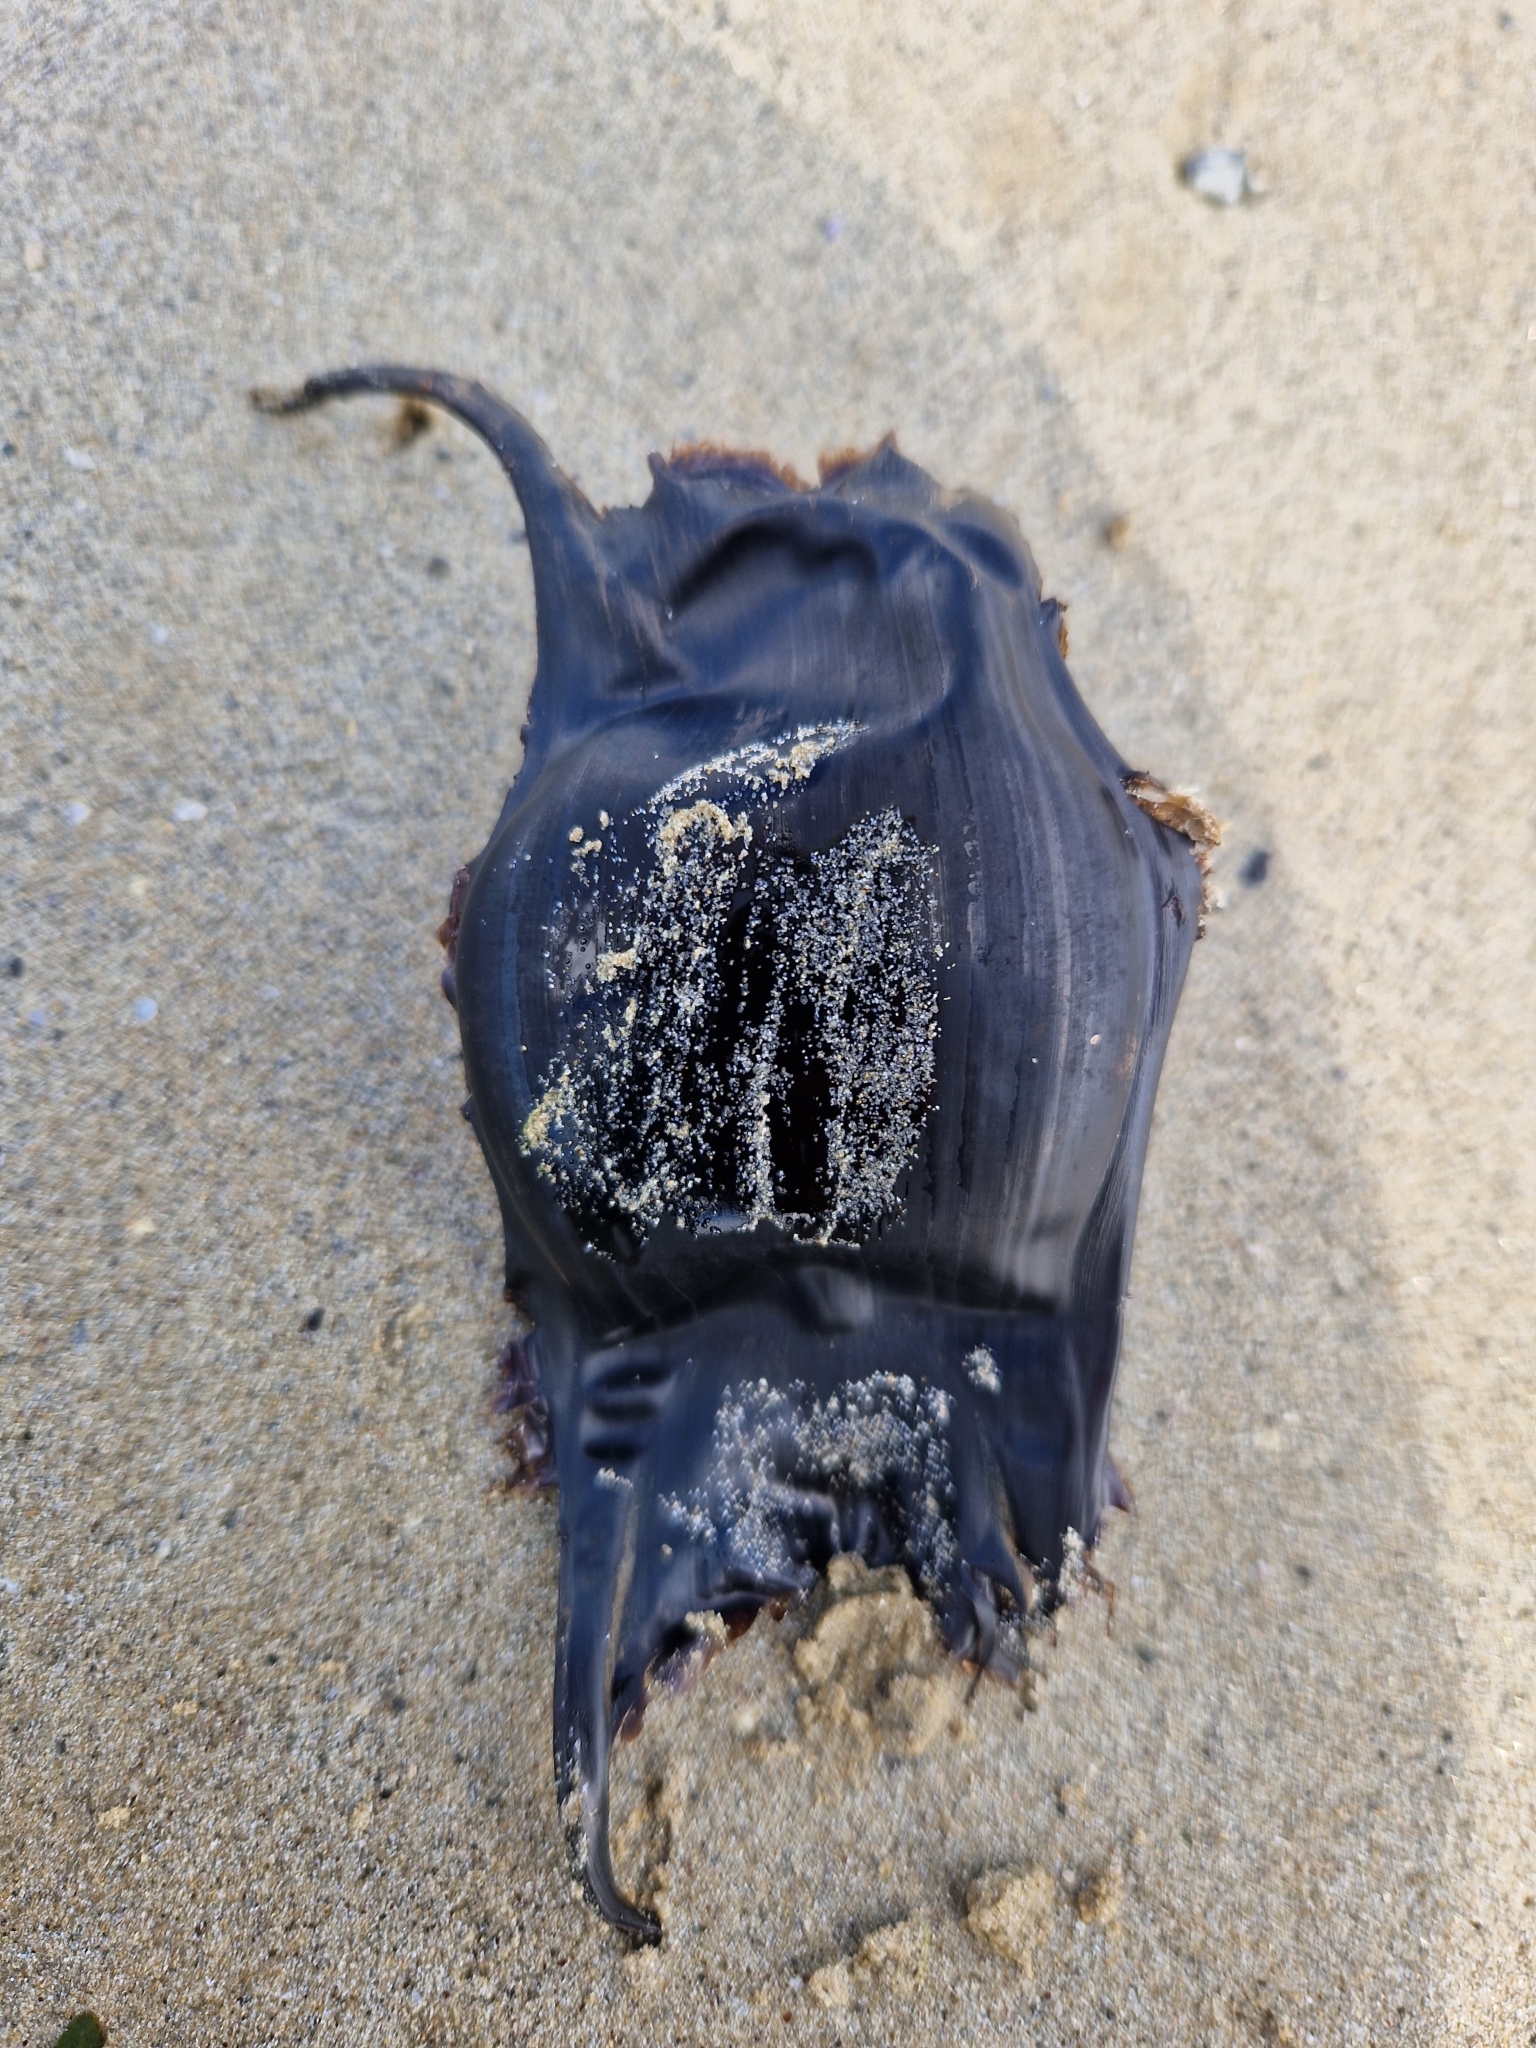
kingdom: Animalia
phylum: Chordata
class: Elasmobranchii
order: Rajiformes
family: Rajidae
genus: Raja
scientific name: Raja brachyura
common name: Blonde ray
